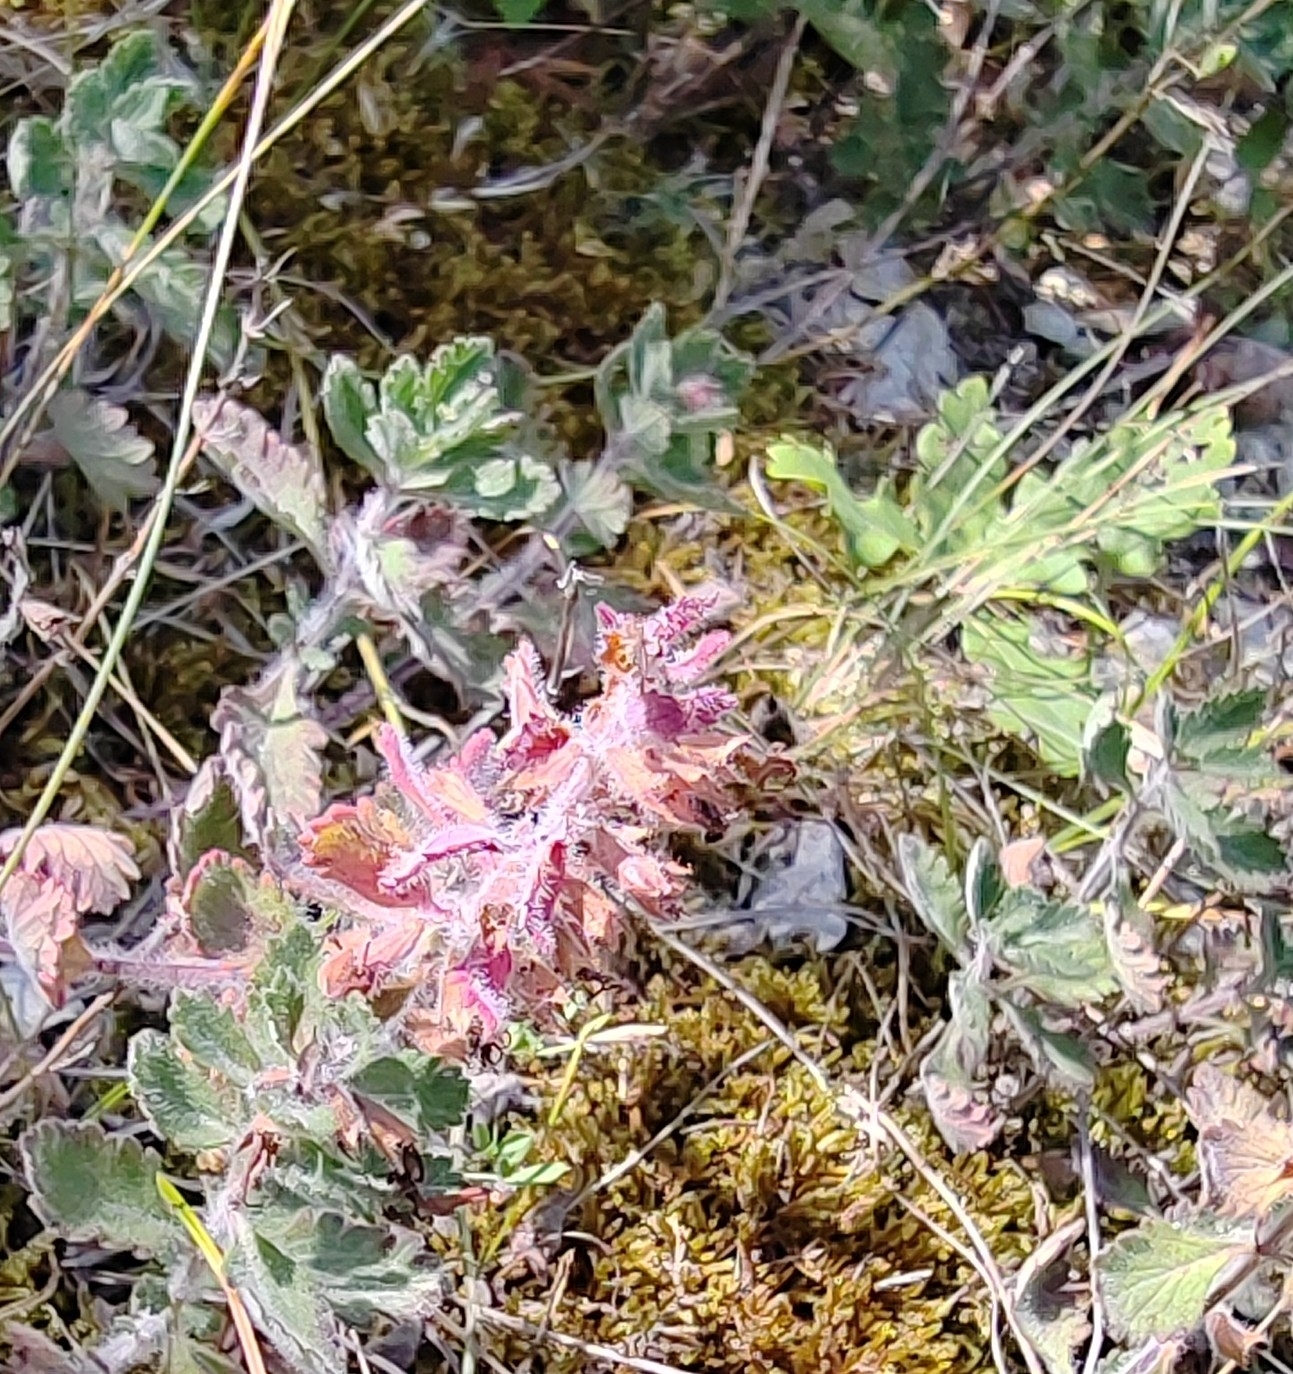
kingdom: Plantae
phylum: Tracheophyta
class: Magnoliopsida
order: Lamiales
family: Lamiaceae
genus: Teucrium
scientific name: Teucrium chamaedrys
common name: Wall germander
